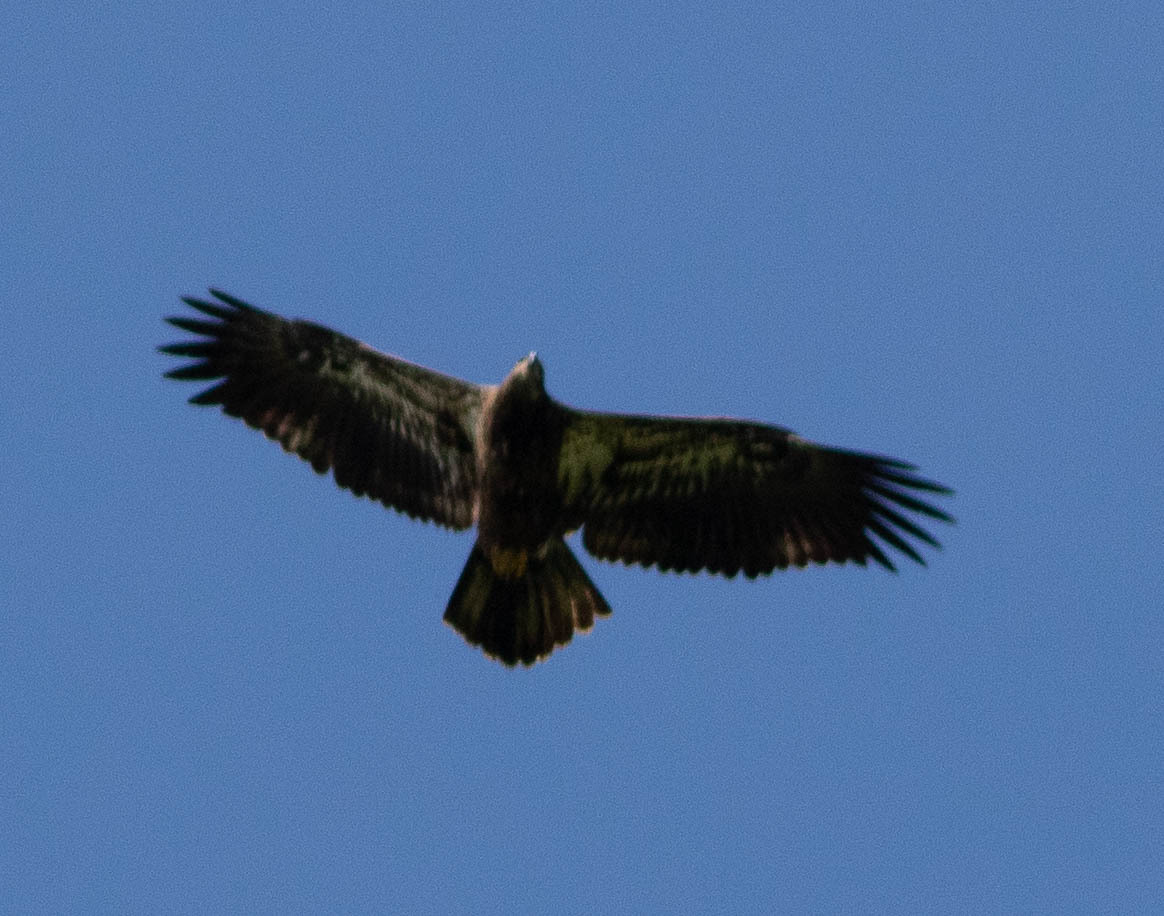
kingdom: Animalia
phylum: Chordata
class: Aves
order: Accipitriformes
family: Accipitridae
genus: Haliaeetus
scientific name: Haliaeetus leucocephalus
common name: Bald eagle
